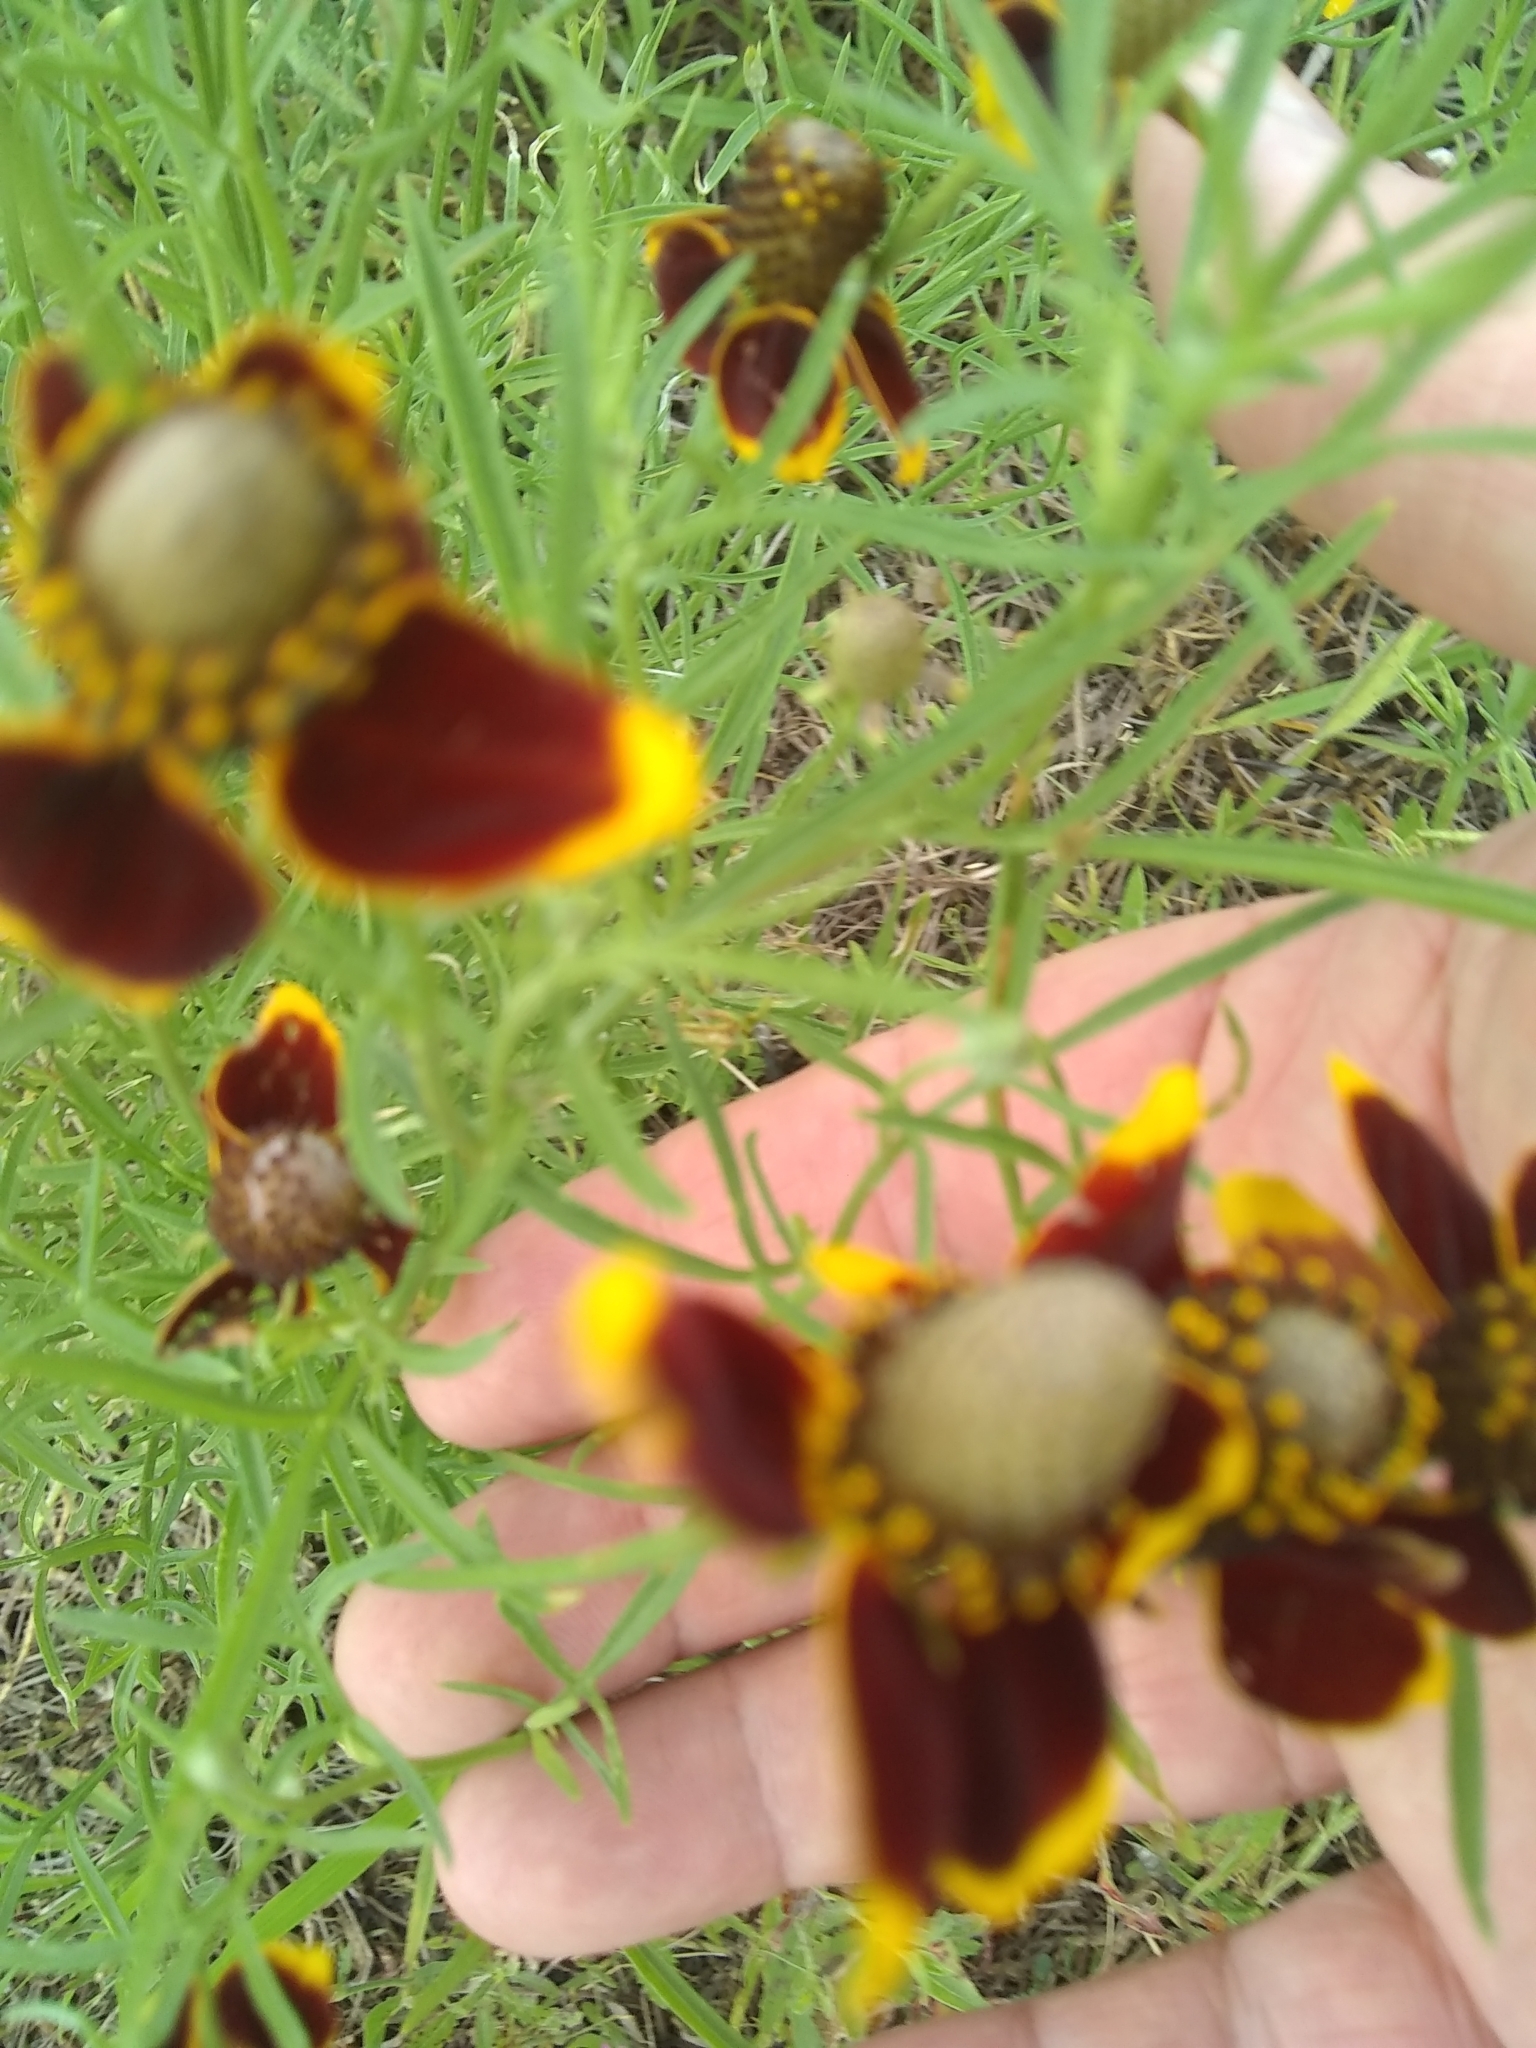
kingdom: Plantae
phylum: Tracheophyta
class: Magnoliopsida
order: Asterales
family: Asteraceae
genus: Ratibida
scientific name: Ratibida columnifera
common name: Prairie coneflower
